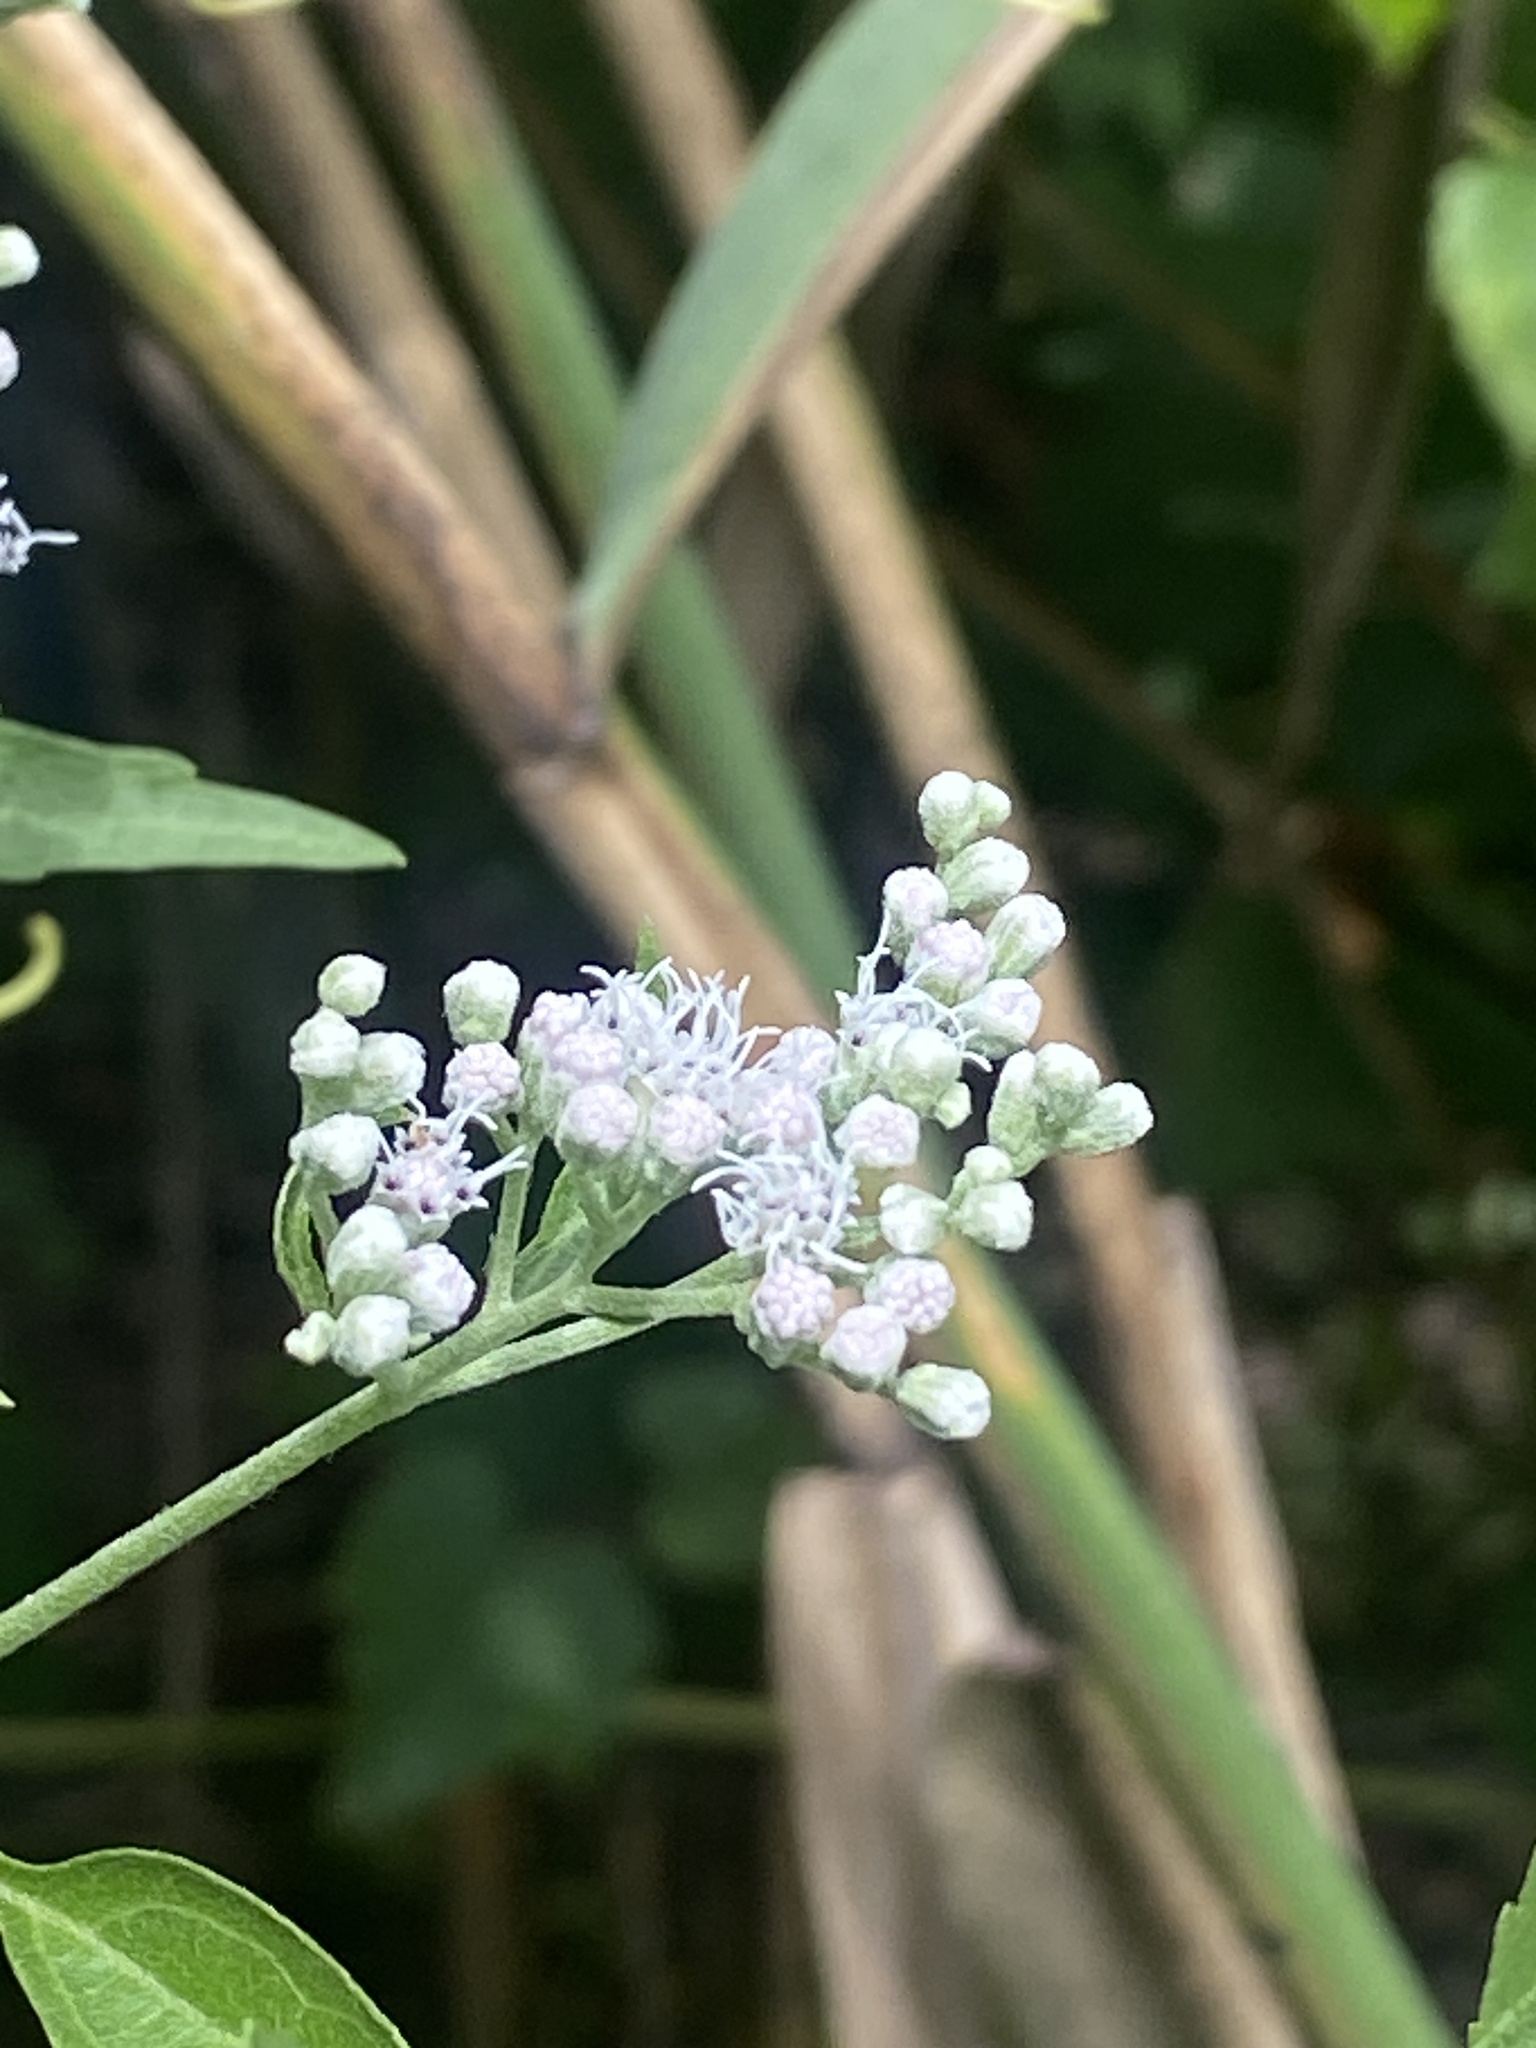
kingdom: Plantae
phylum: Tracheophyta
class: Magnoliopsida
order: Asterales
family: Asteraceae
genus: Eupatorium
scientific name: Eupatorium serotinum
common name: Late boneset
